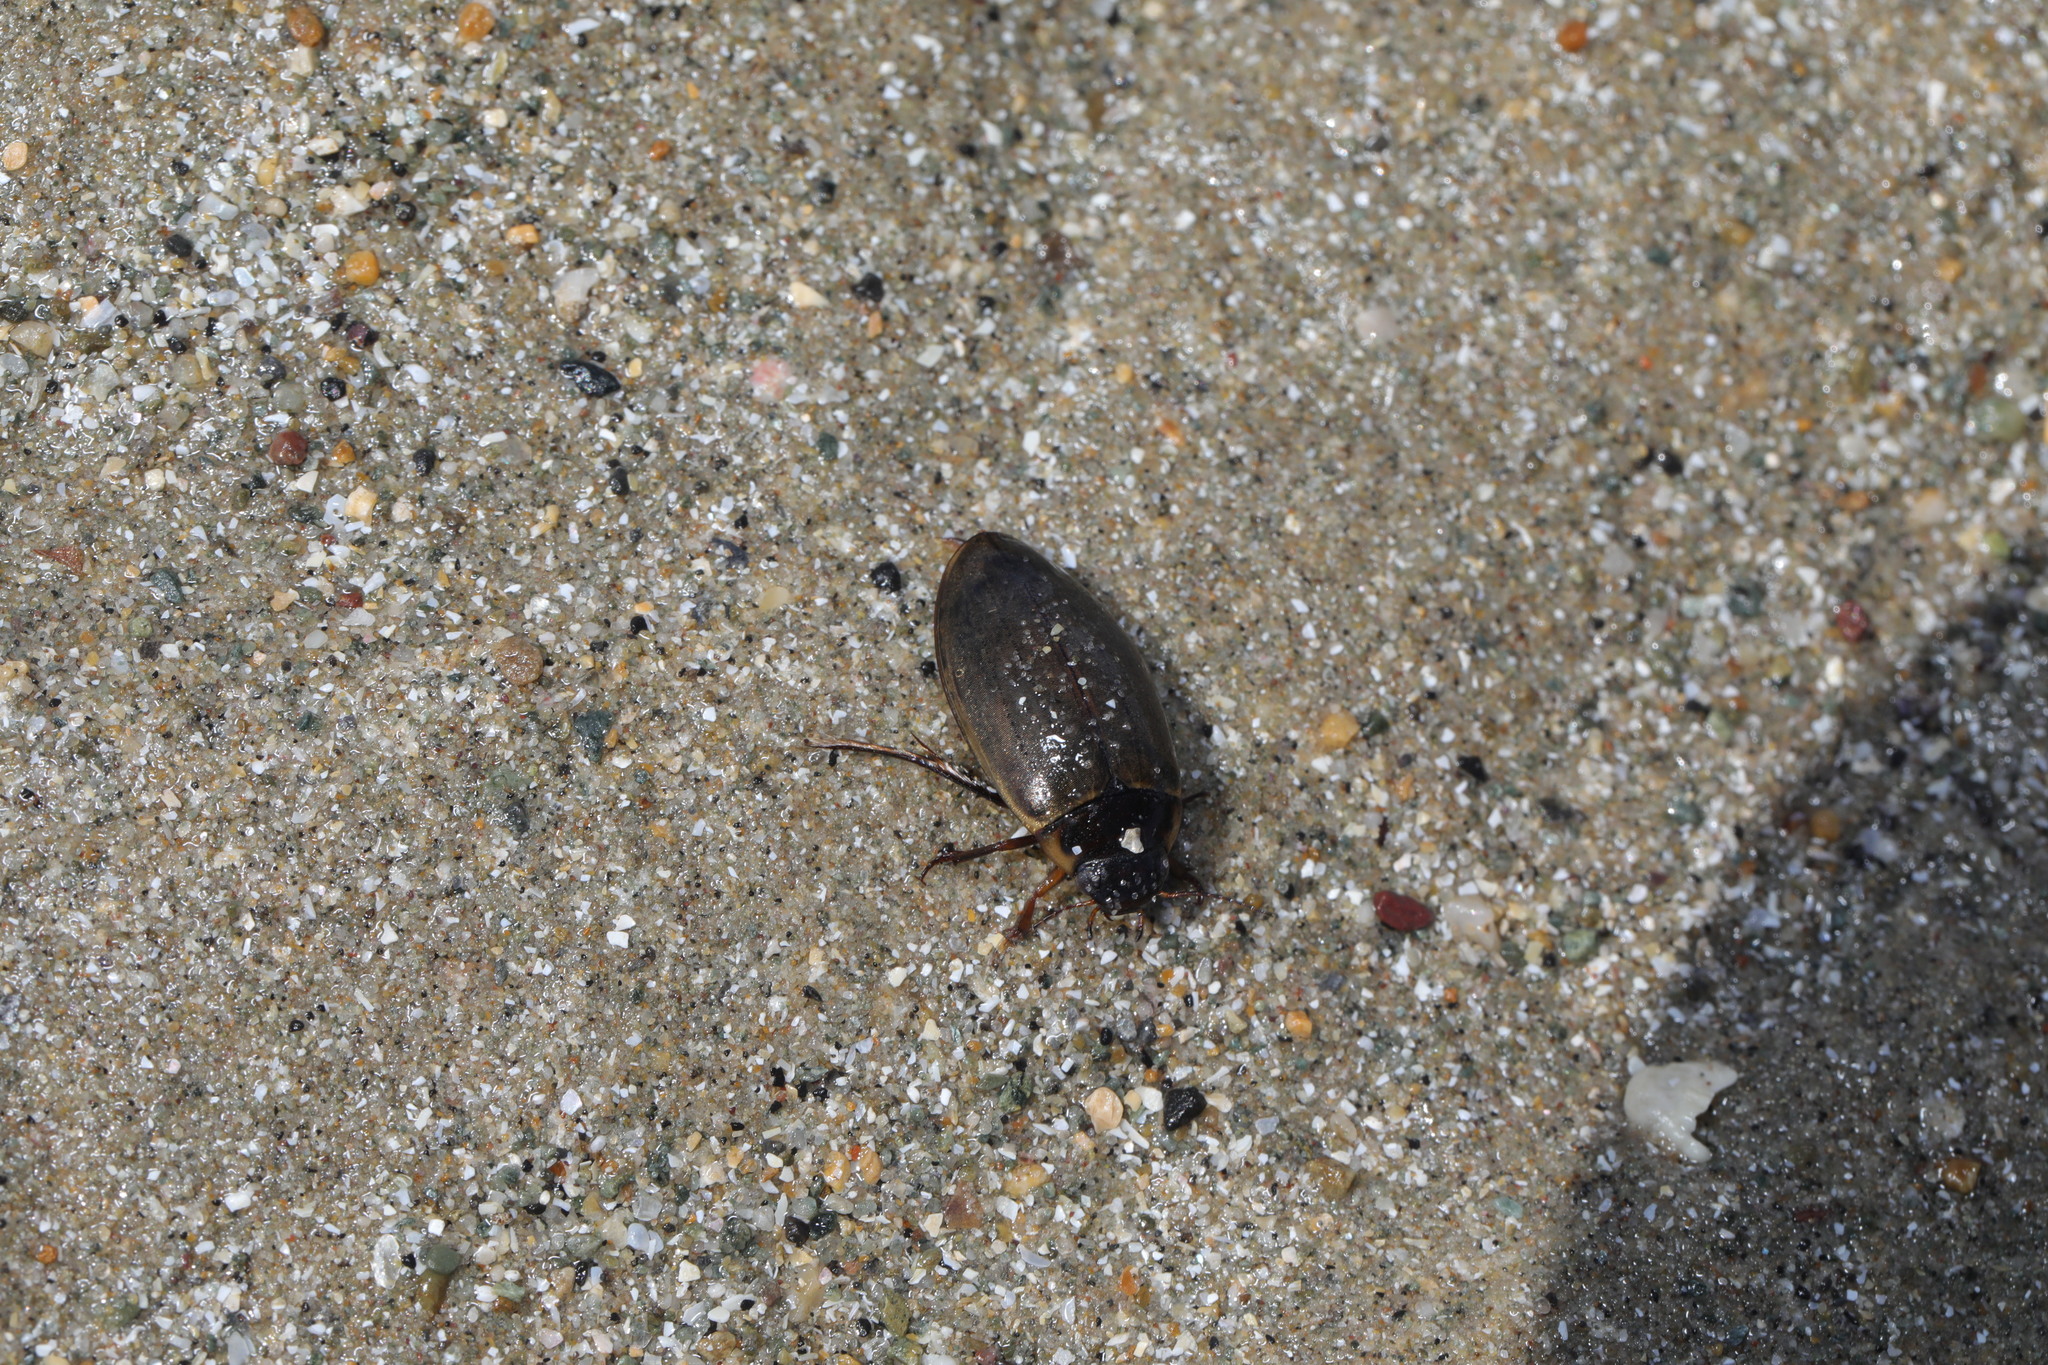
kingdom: Animalia
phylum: Arthropoda
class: Insecta
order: Coleoptera
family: Dytiscidae
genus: Colymbetes
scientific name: Colymbetes fuscus
